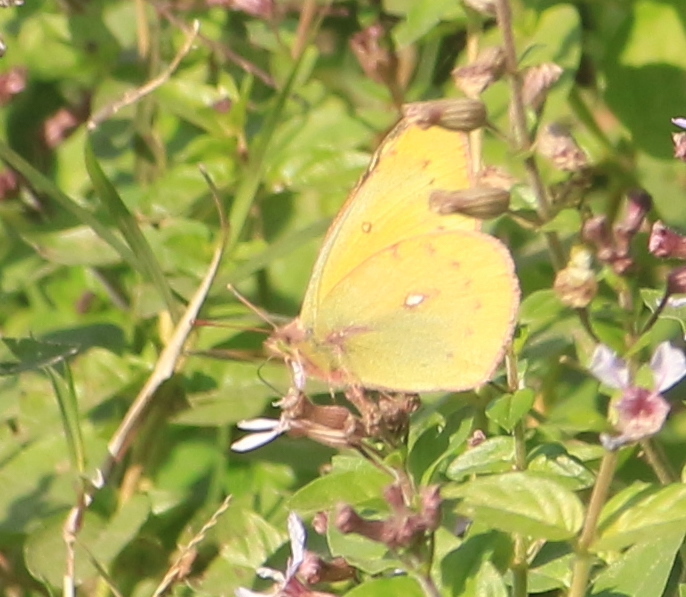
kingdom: Animalia
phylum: Arthropoda
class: Insecta
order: Lepidoptera
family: Pieridae
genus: Colias
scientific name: Colias lesbia
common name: Lesbia clouded yellow
